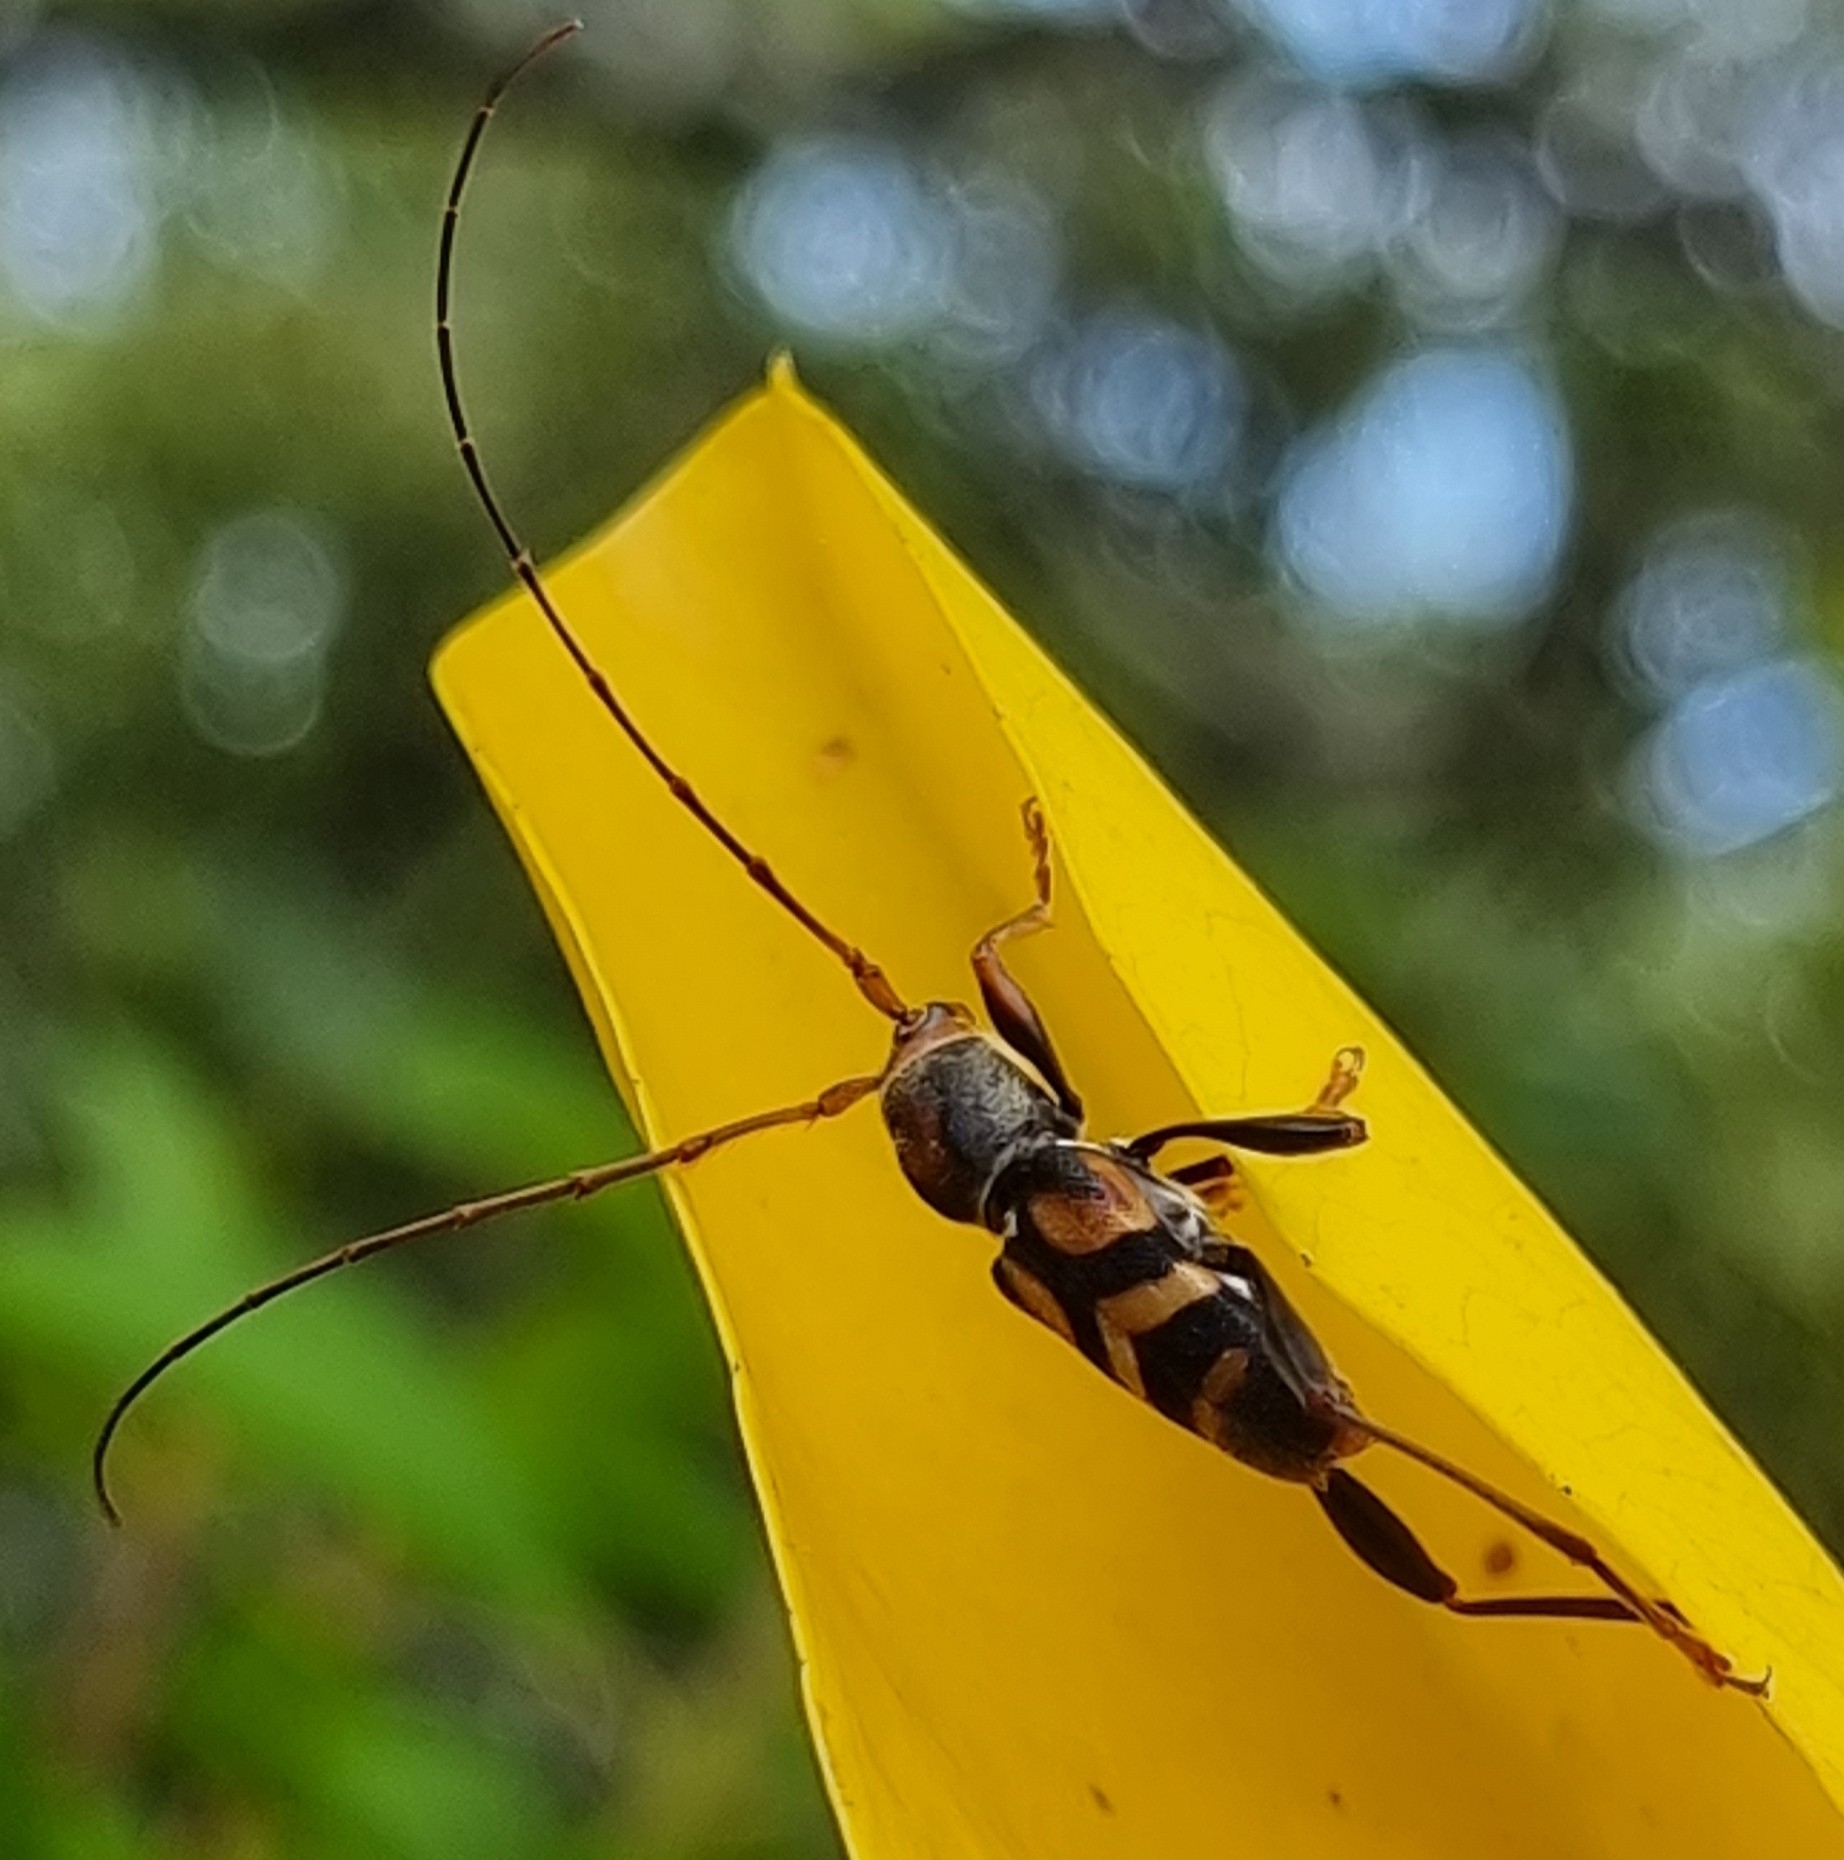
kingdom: Animalia
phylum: Arthropoda
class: Insecta
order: Coleoptera
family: Cerambycidae
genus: Aridaeus
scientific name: Aridaeus thoracicus
